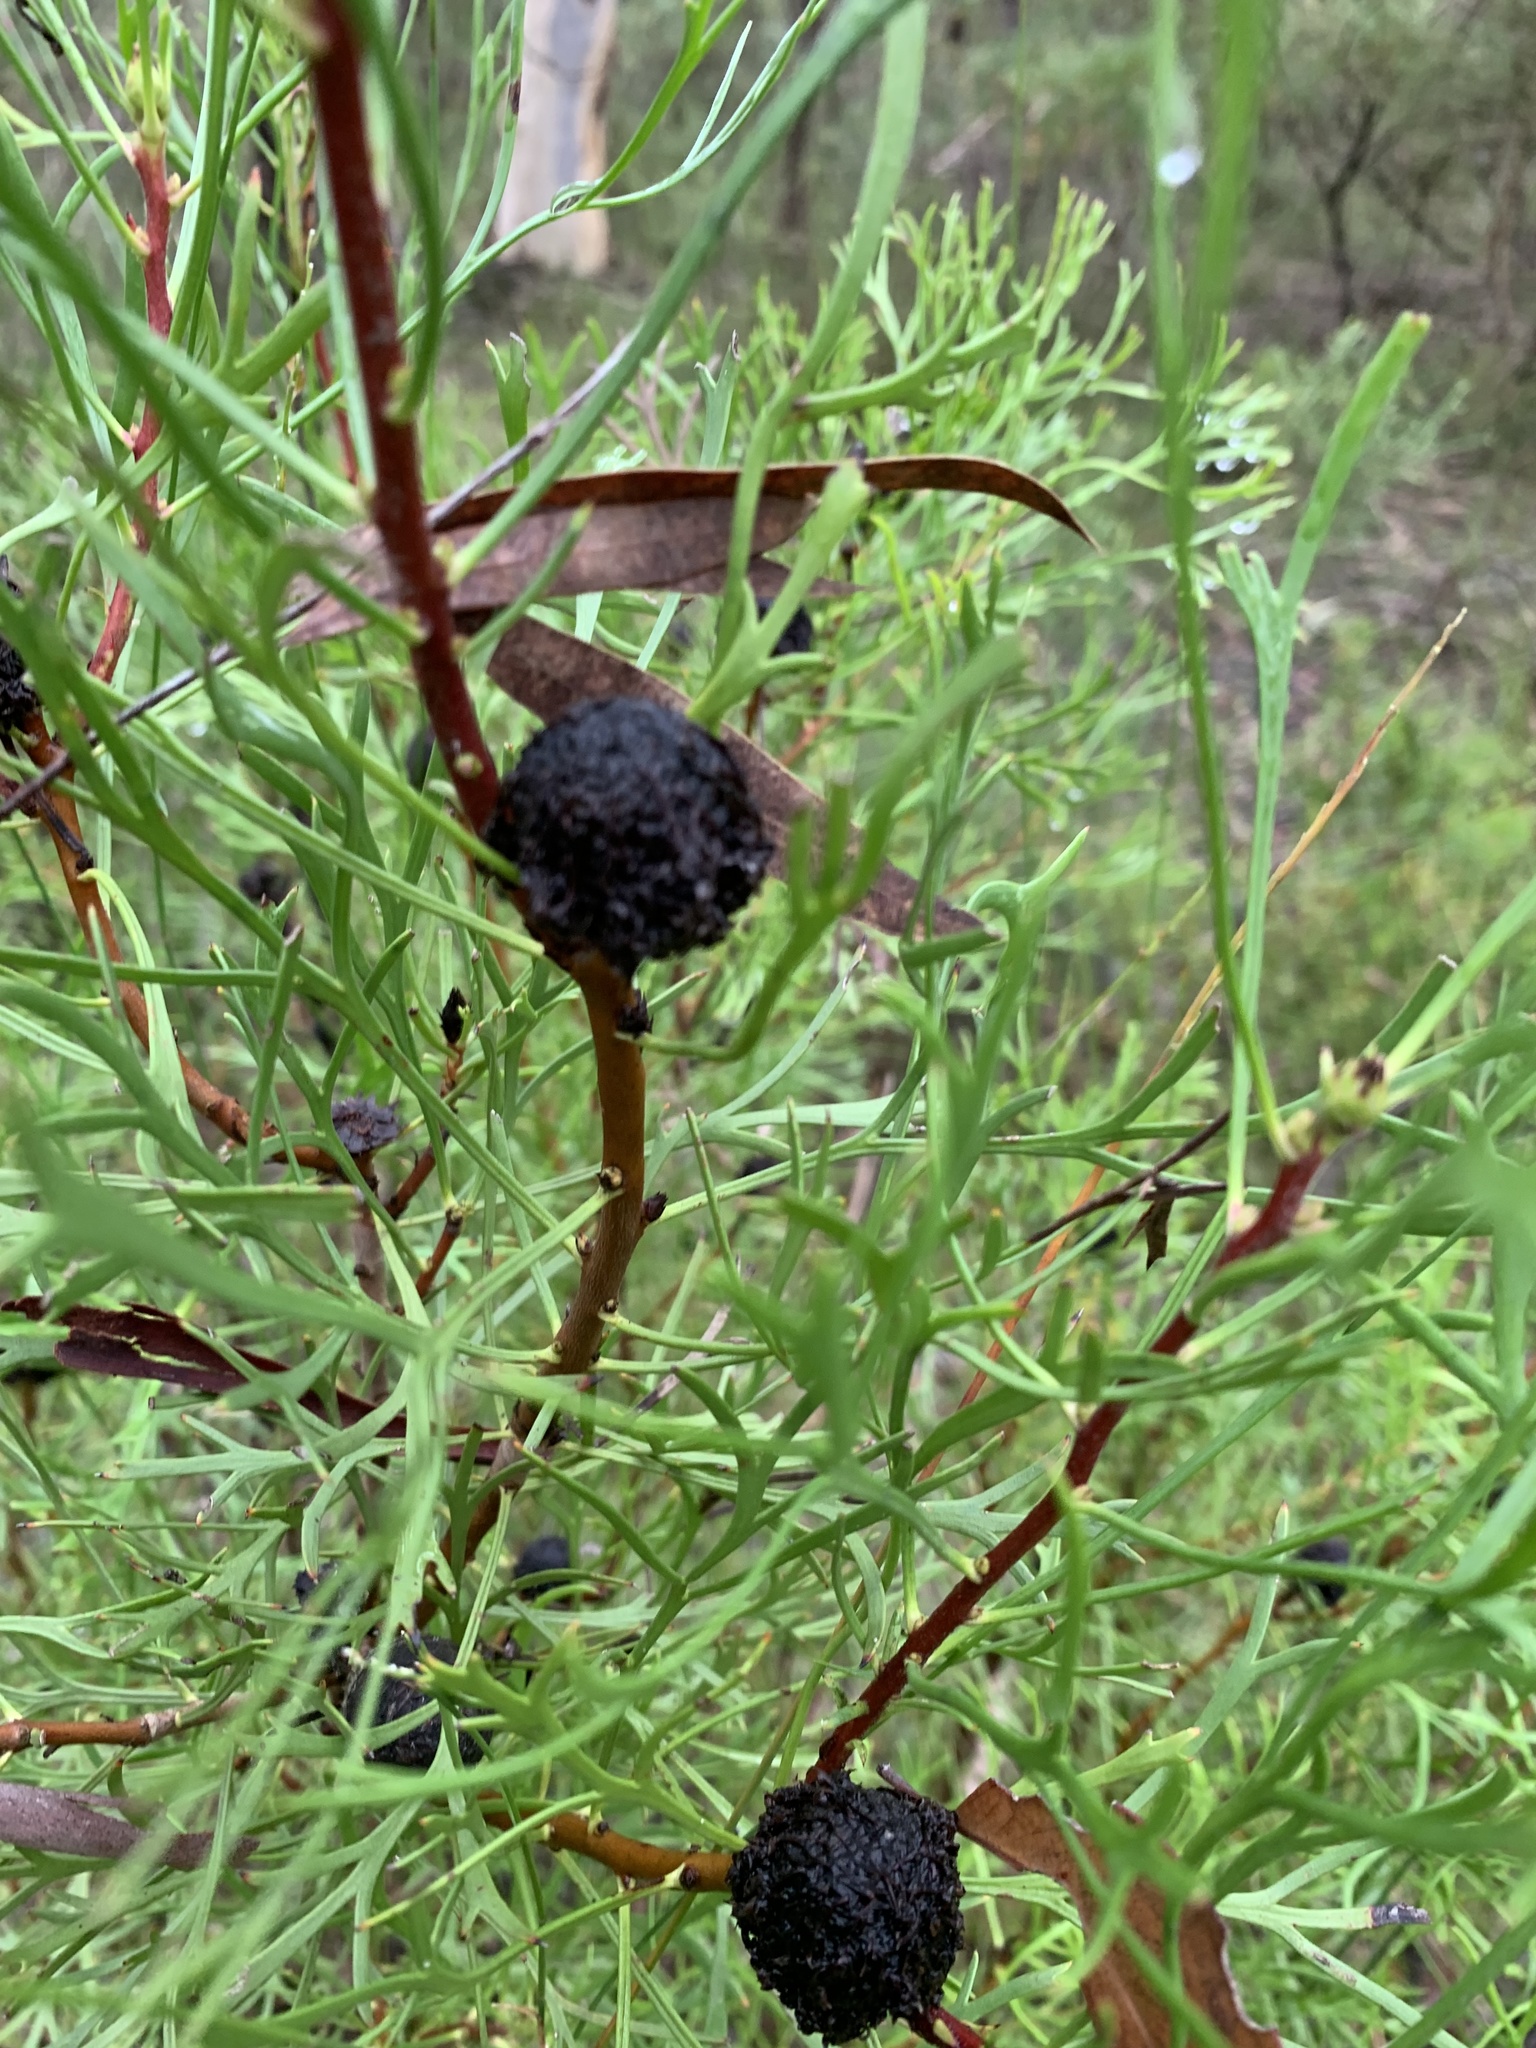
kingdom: Plantae
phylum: Tracheophyta
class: Magnoliopsida
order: Proteales
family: Proteaceae
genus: Isopogon
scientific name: Isopogon anemonifolius
